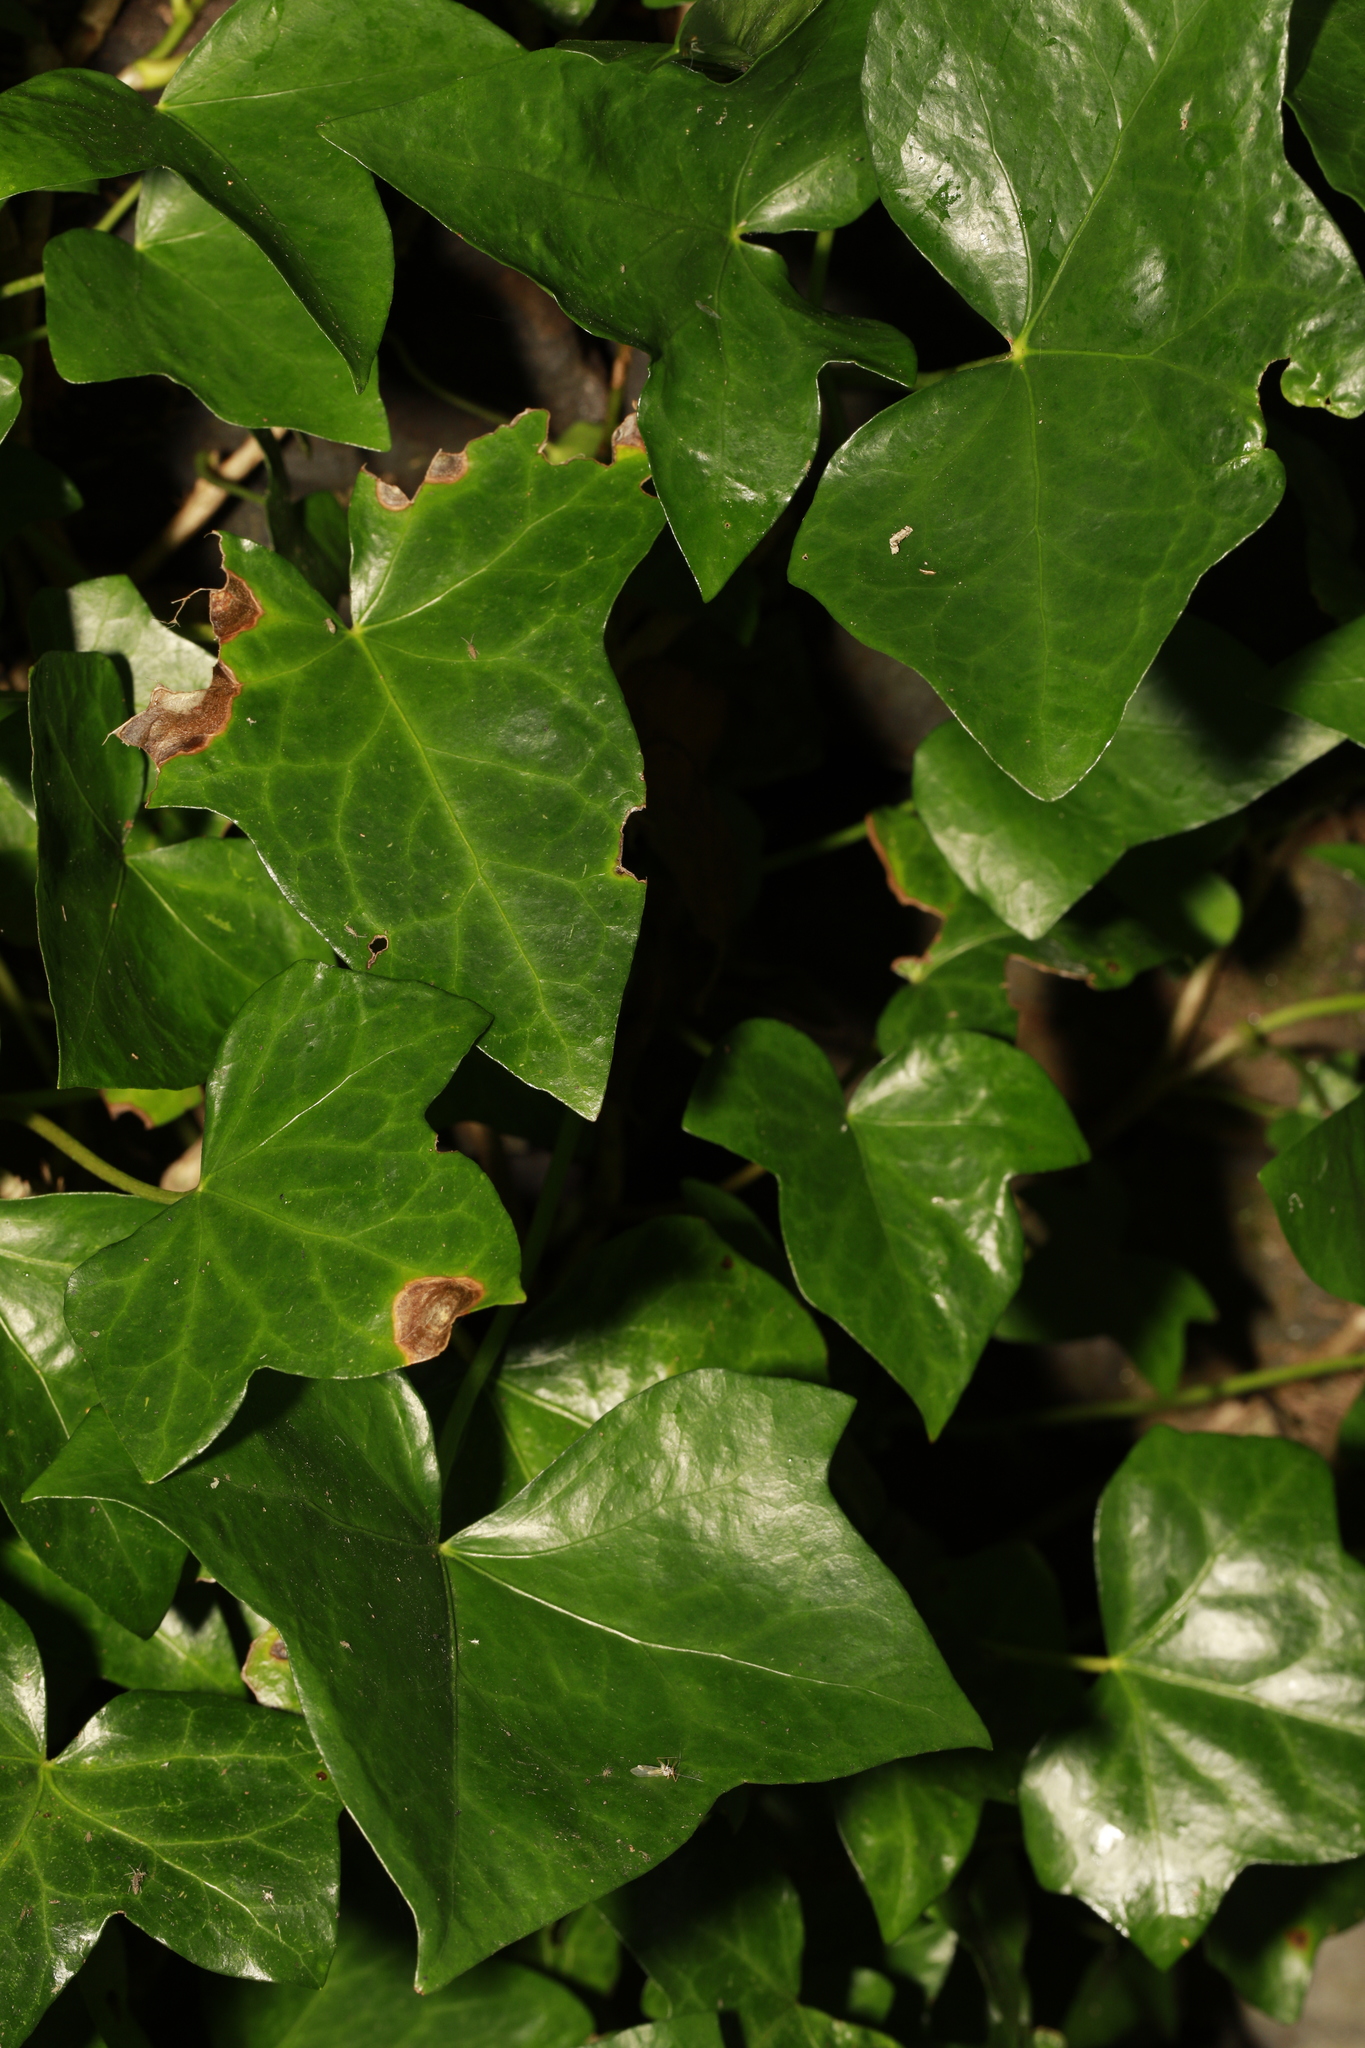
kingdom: Plantae
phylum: Tracheophyta
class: Magnoliopsida
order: Apiales
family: Araliaceae
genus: Hedera
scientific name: Hedera helix
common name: Ivy
